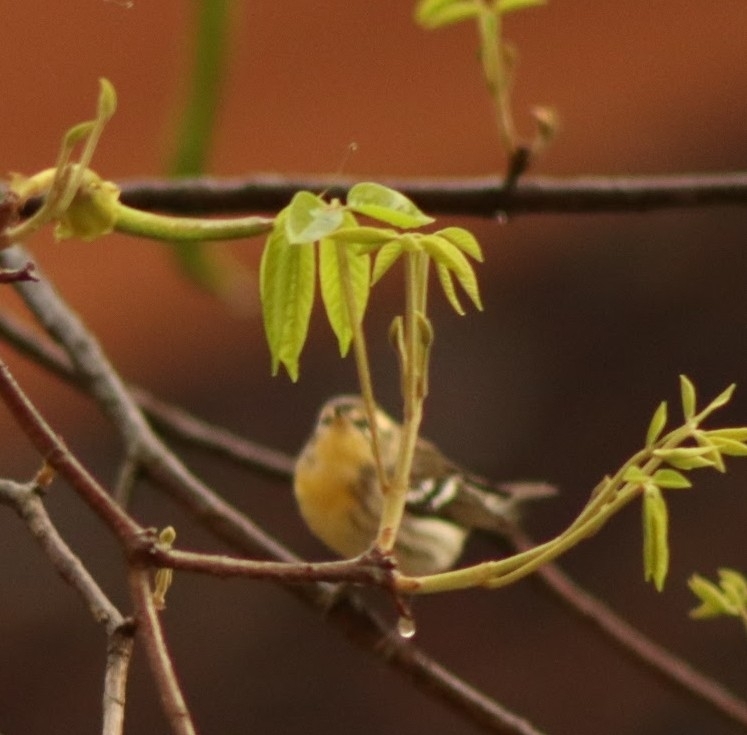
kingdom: Animalia
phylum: Chordata
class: Aves
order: Passeriformes
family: Parulidae
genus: Setophaga
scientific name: Setophaga fusca
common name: Blackburnian warbler
